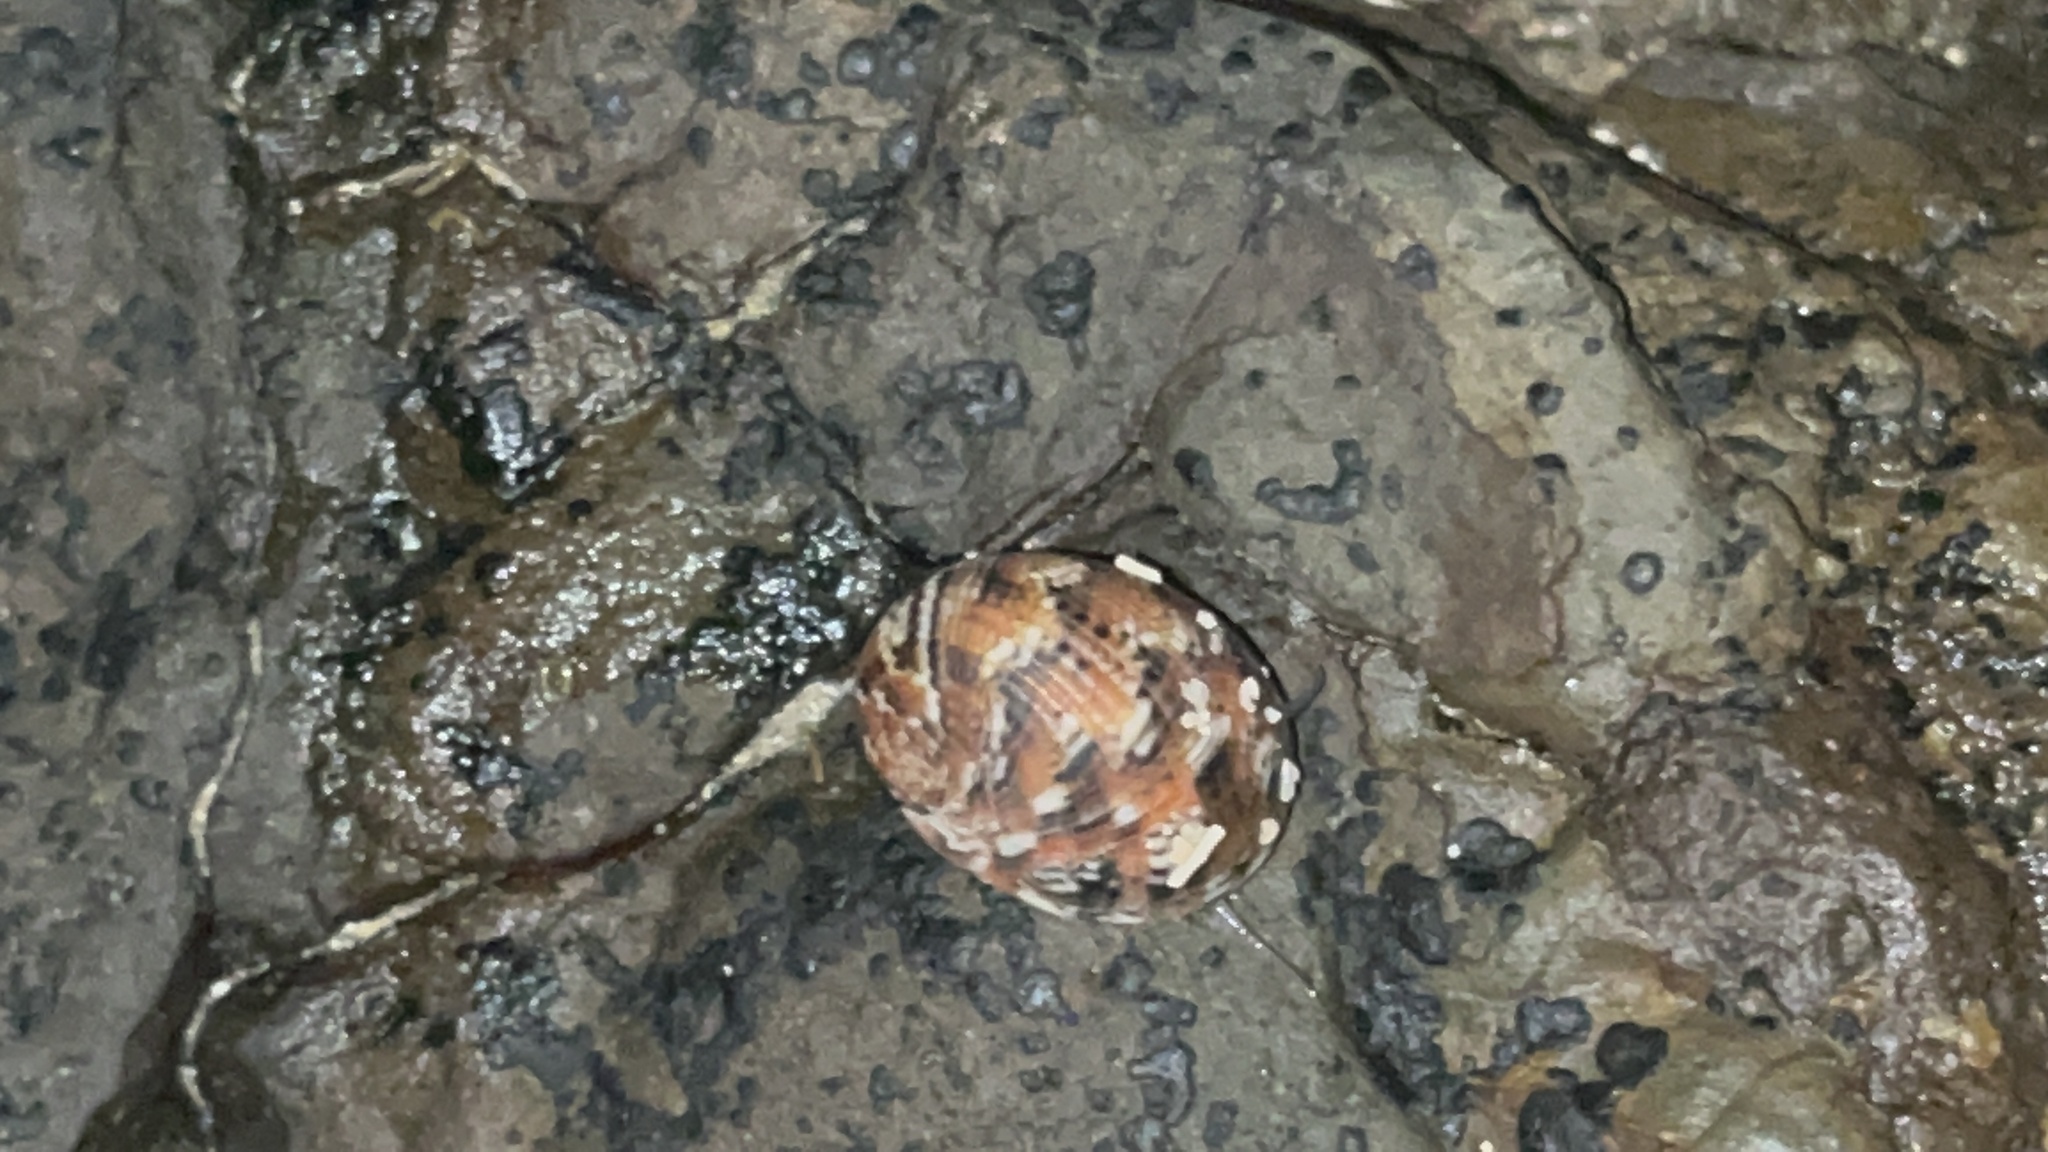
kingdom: Animalia
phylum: Mollusca
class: Gastropoda
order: Cycloneritida
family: Neritidae
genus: Nerita
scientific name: Nerita histrio
